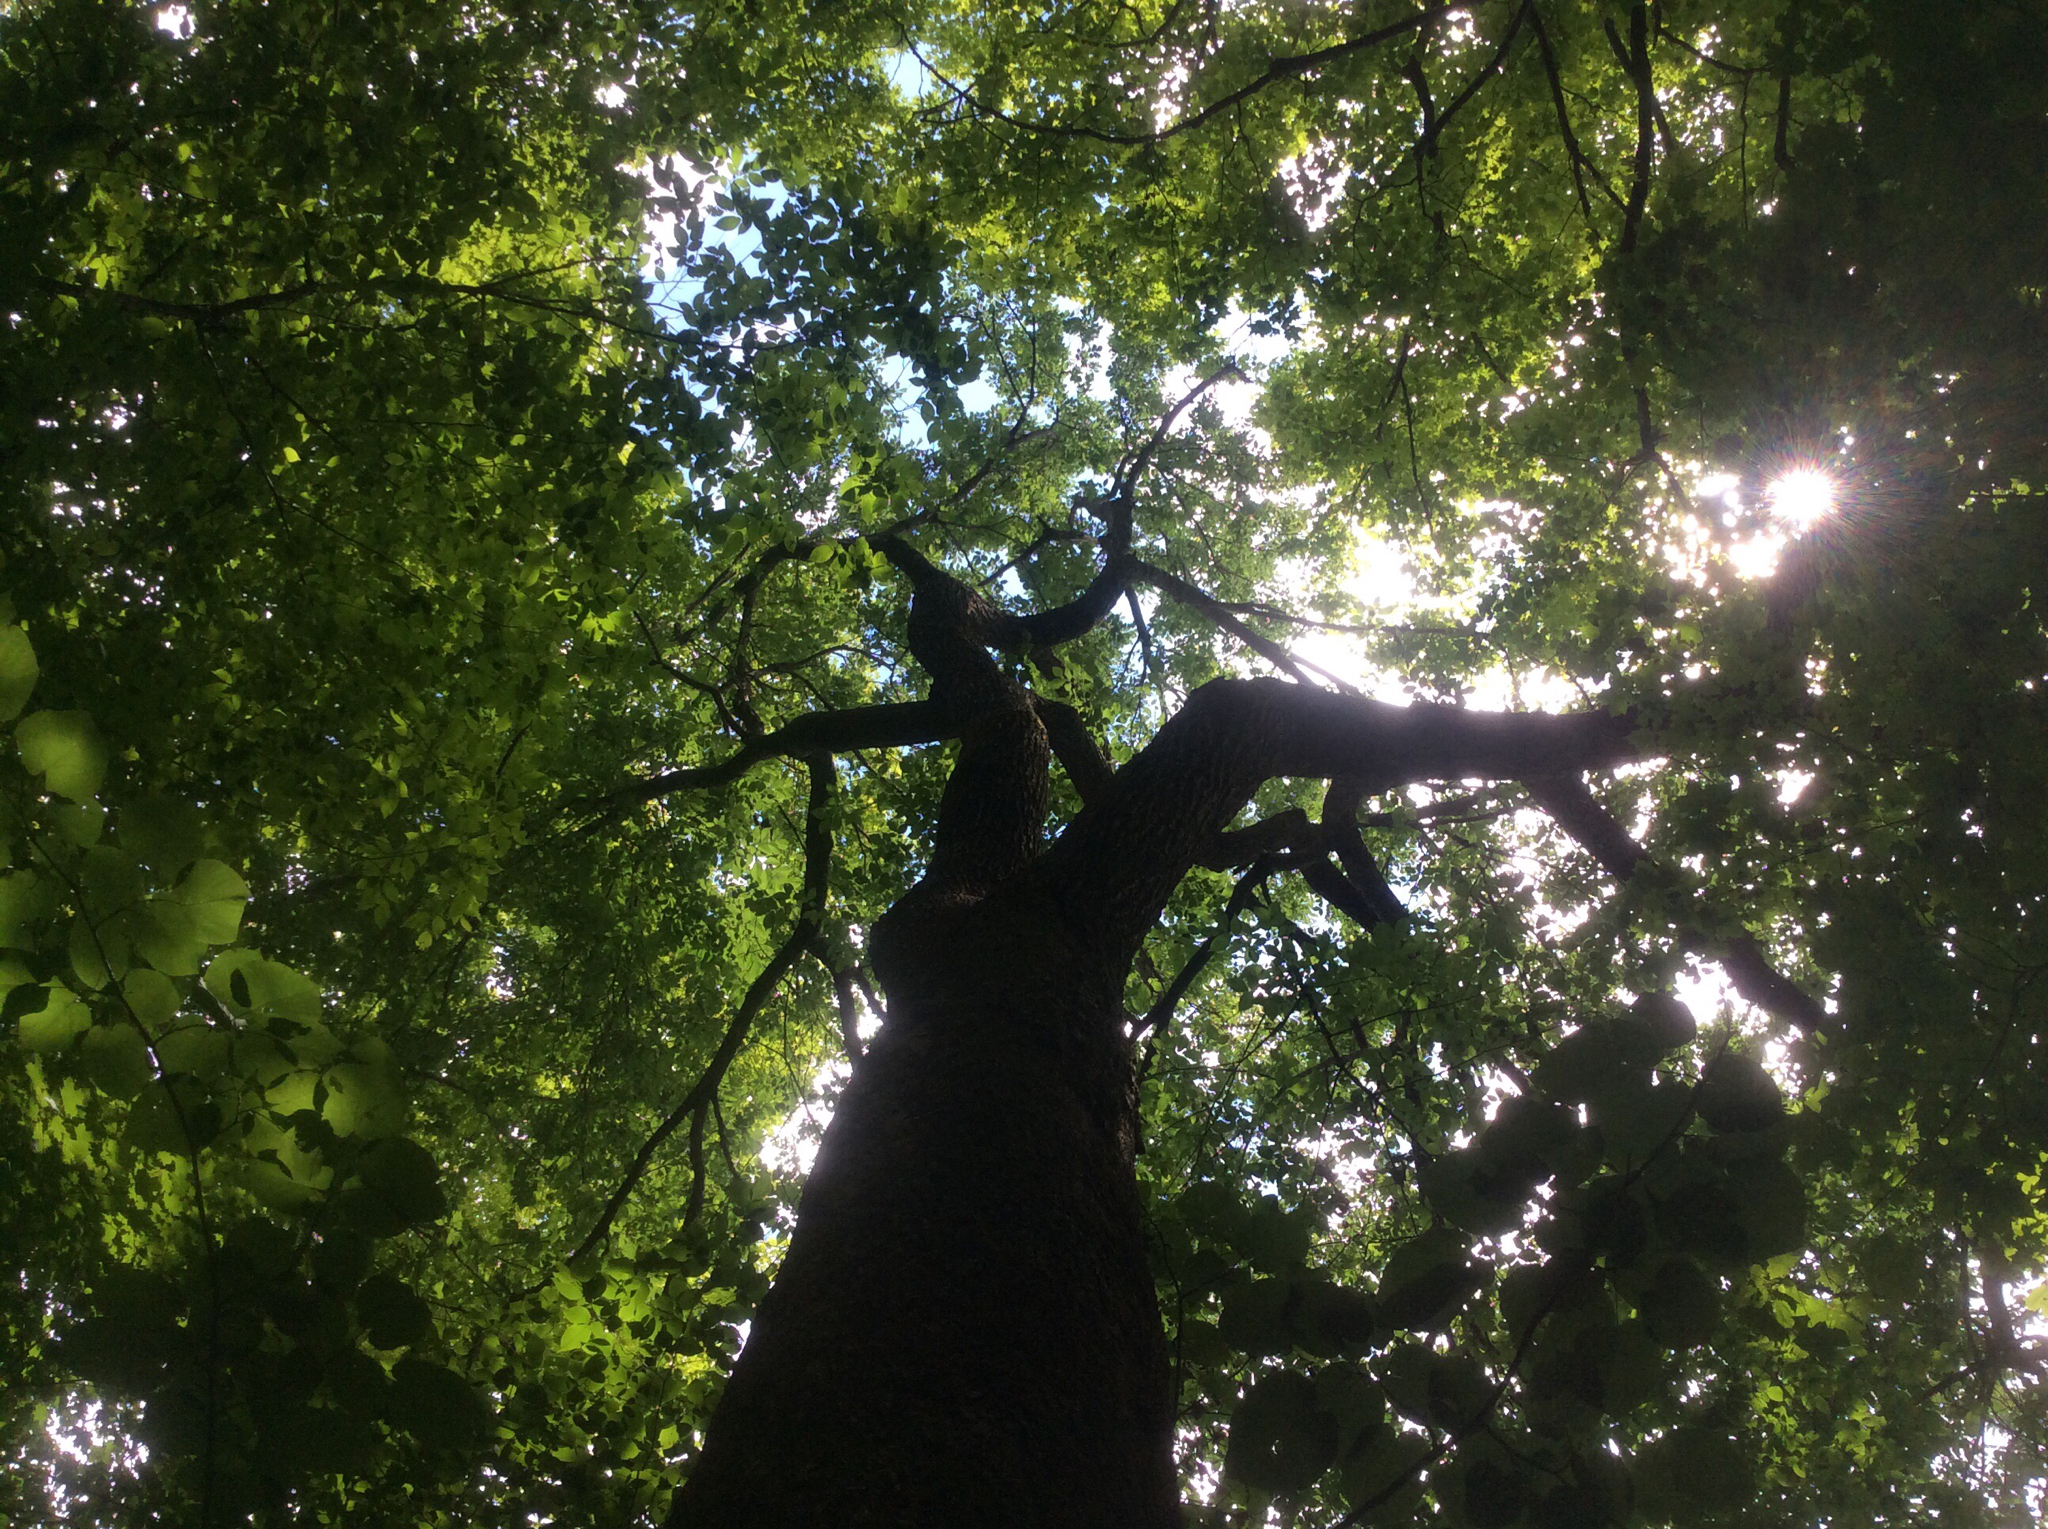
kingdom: Plantae
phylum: Tracheophyta
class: Magnoliopsida
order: Rosales
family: Ulmaceae
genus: Ulmus
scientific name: Ulmus rubra
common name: Slippery elm
